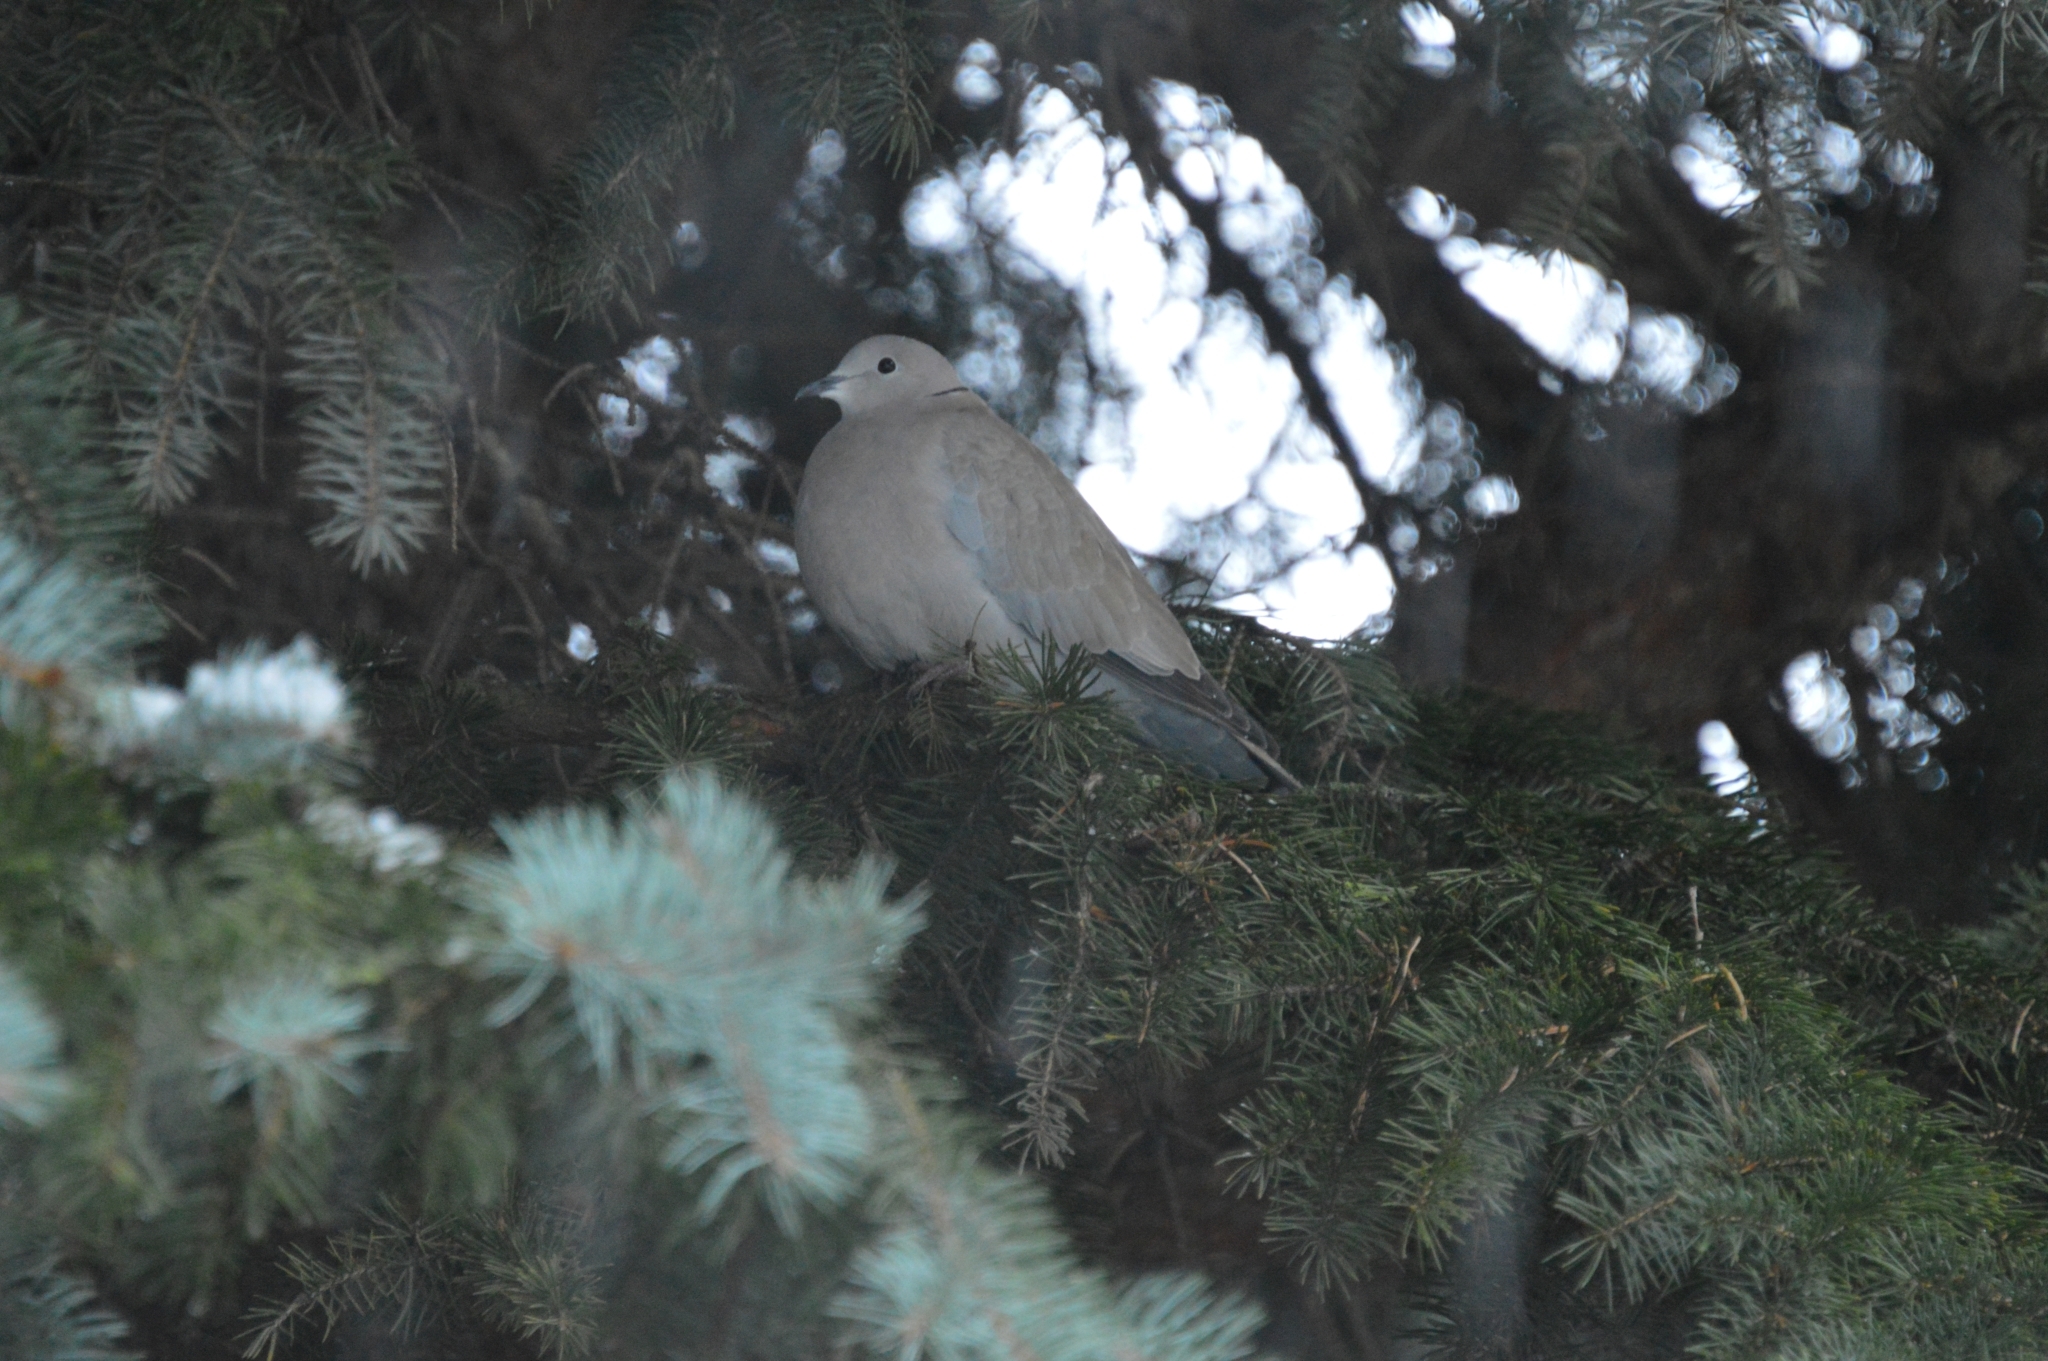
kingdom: Animalia
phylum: Chordata
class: Aves
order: Columbiformes
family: Columbidae
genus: Streptopelia
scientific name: Streptopelia decaocto
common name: Eurasian collared dove
